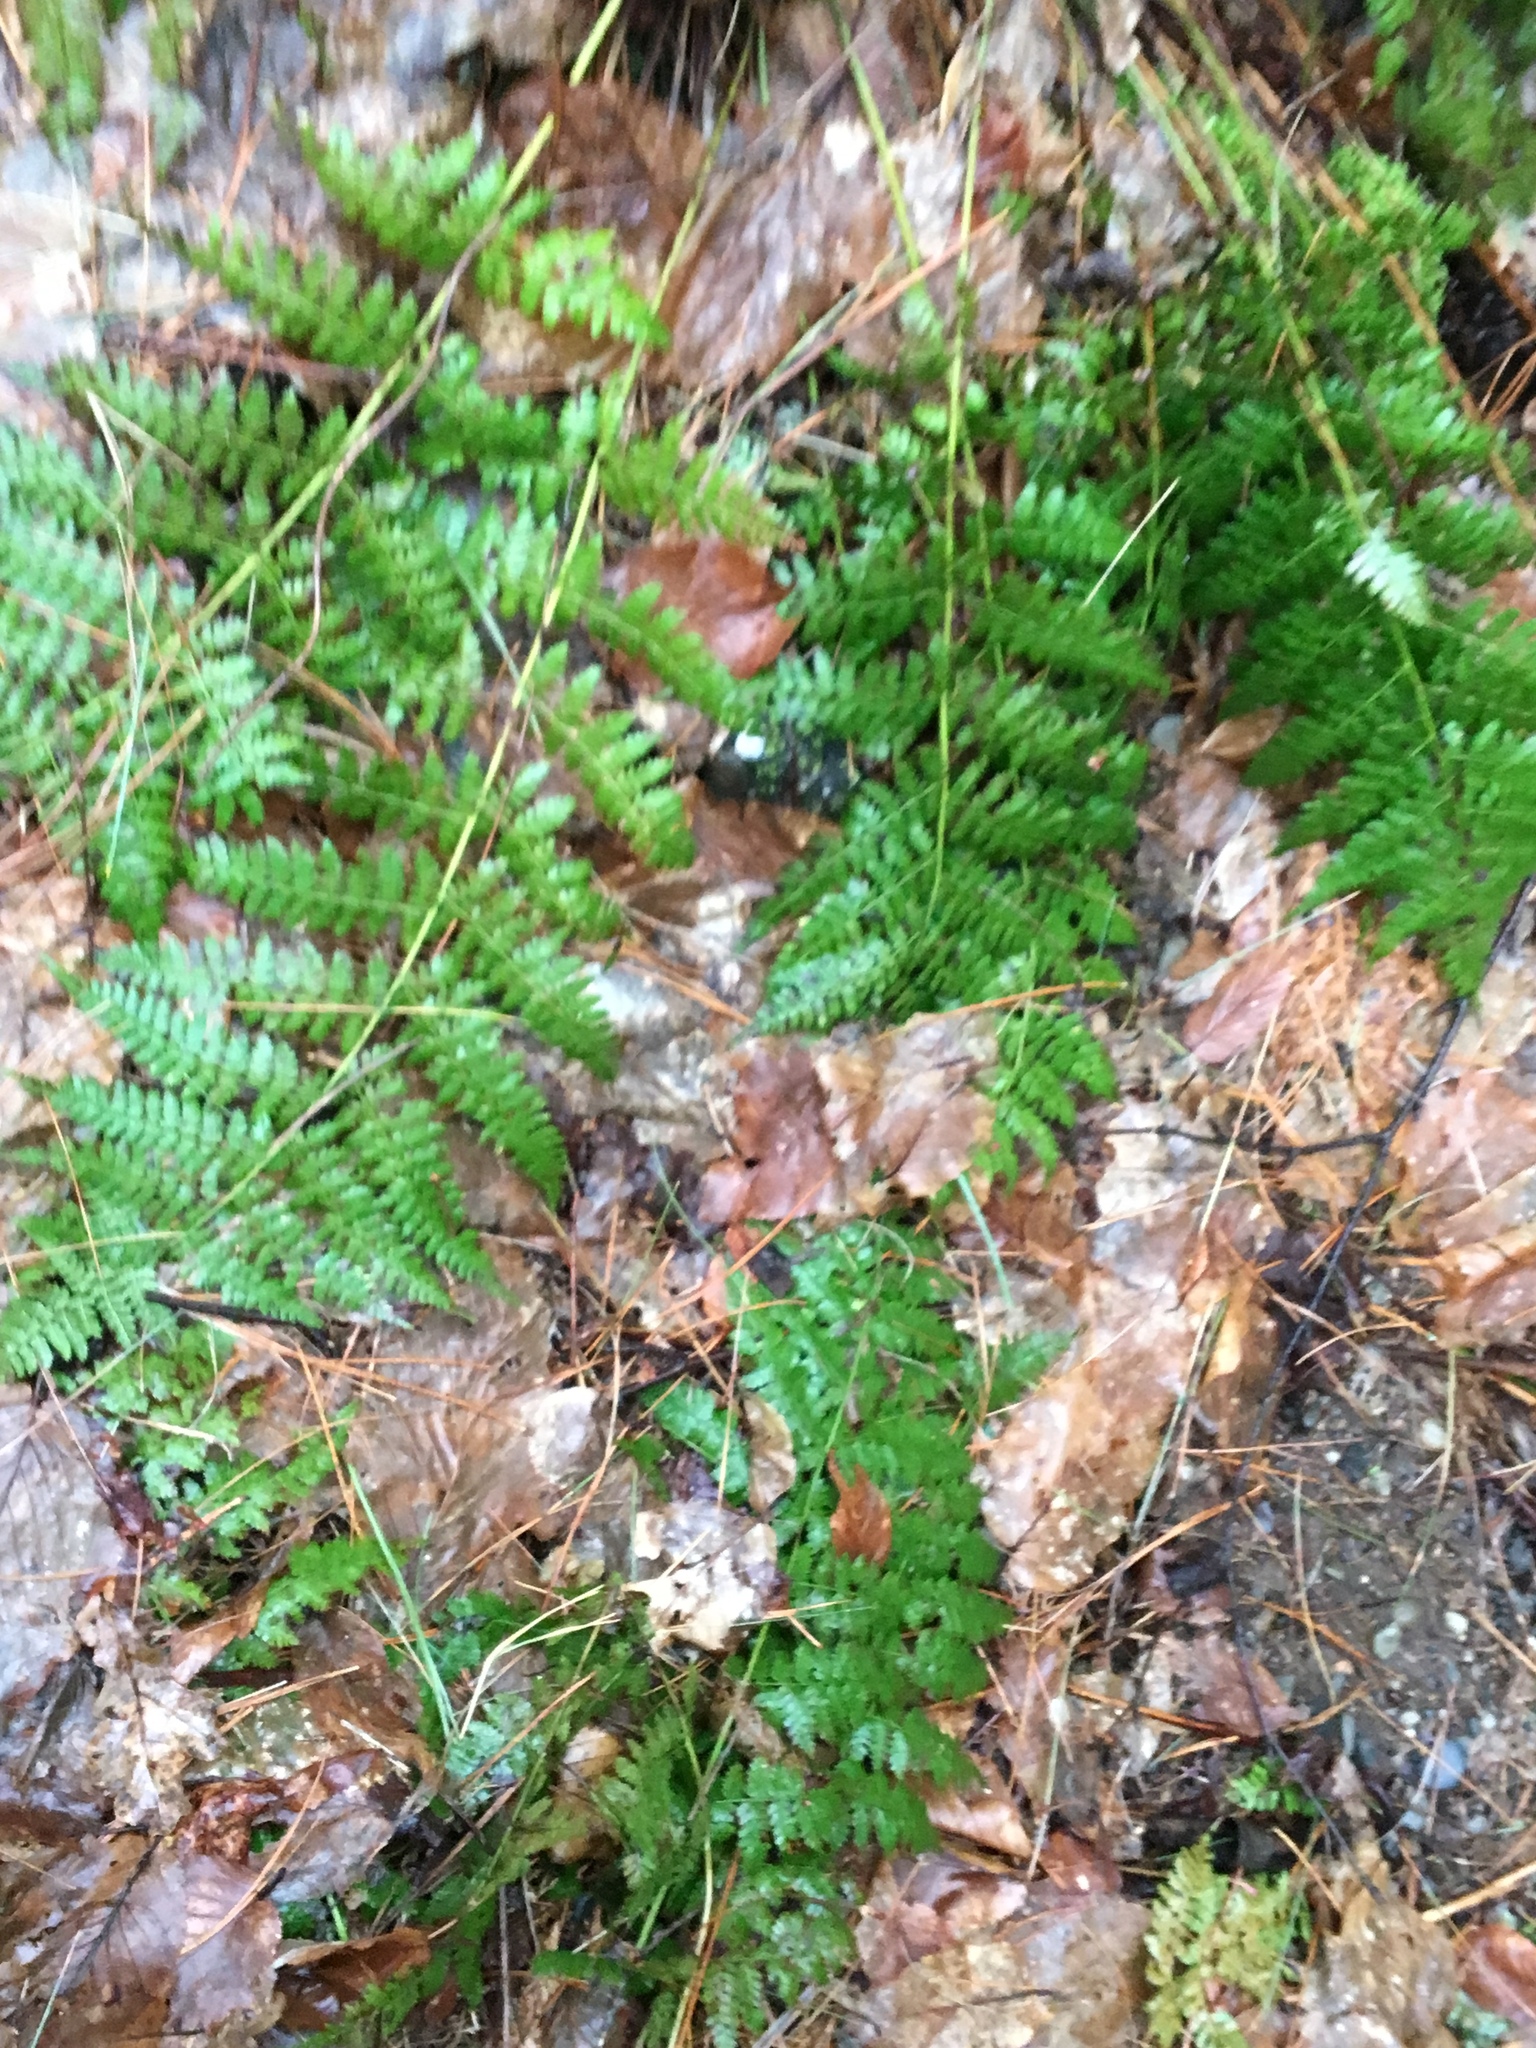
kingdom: Plantae
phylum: Tracheophyta
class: Polypodiopsida
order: Polypodiales
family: Dryopteridaceae
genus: Dryopteris
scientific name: Dryopteris intermedia
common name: Evergreen wood fern
